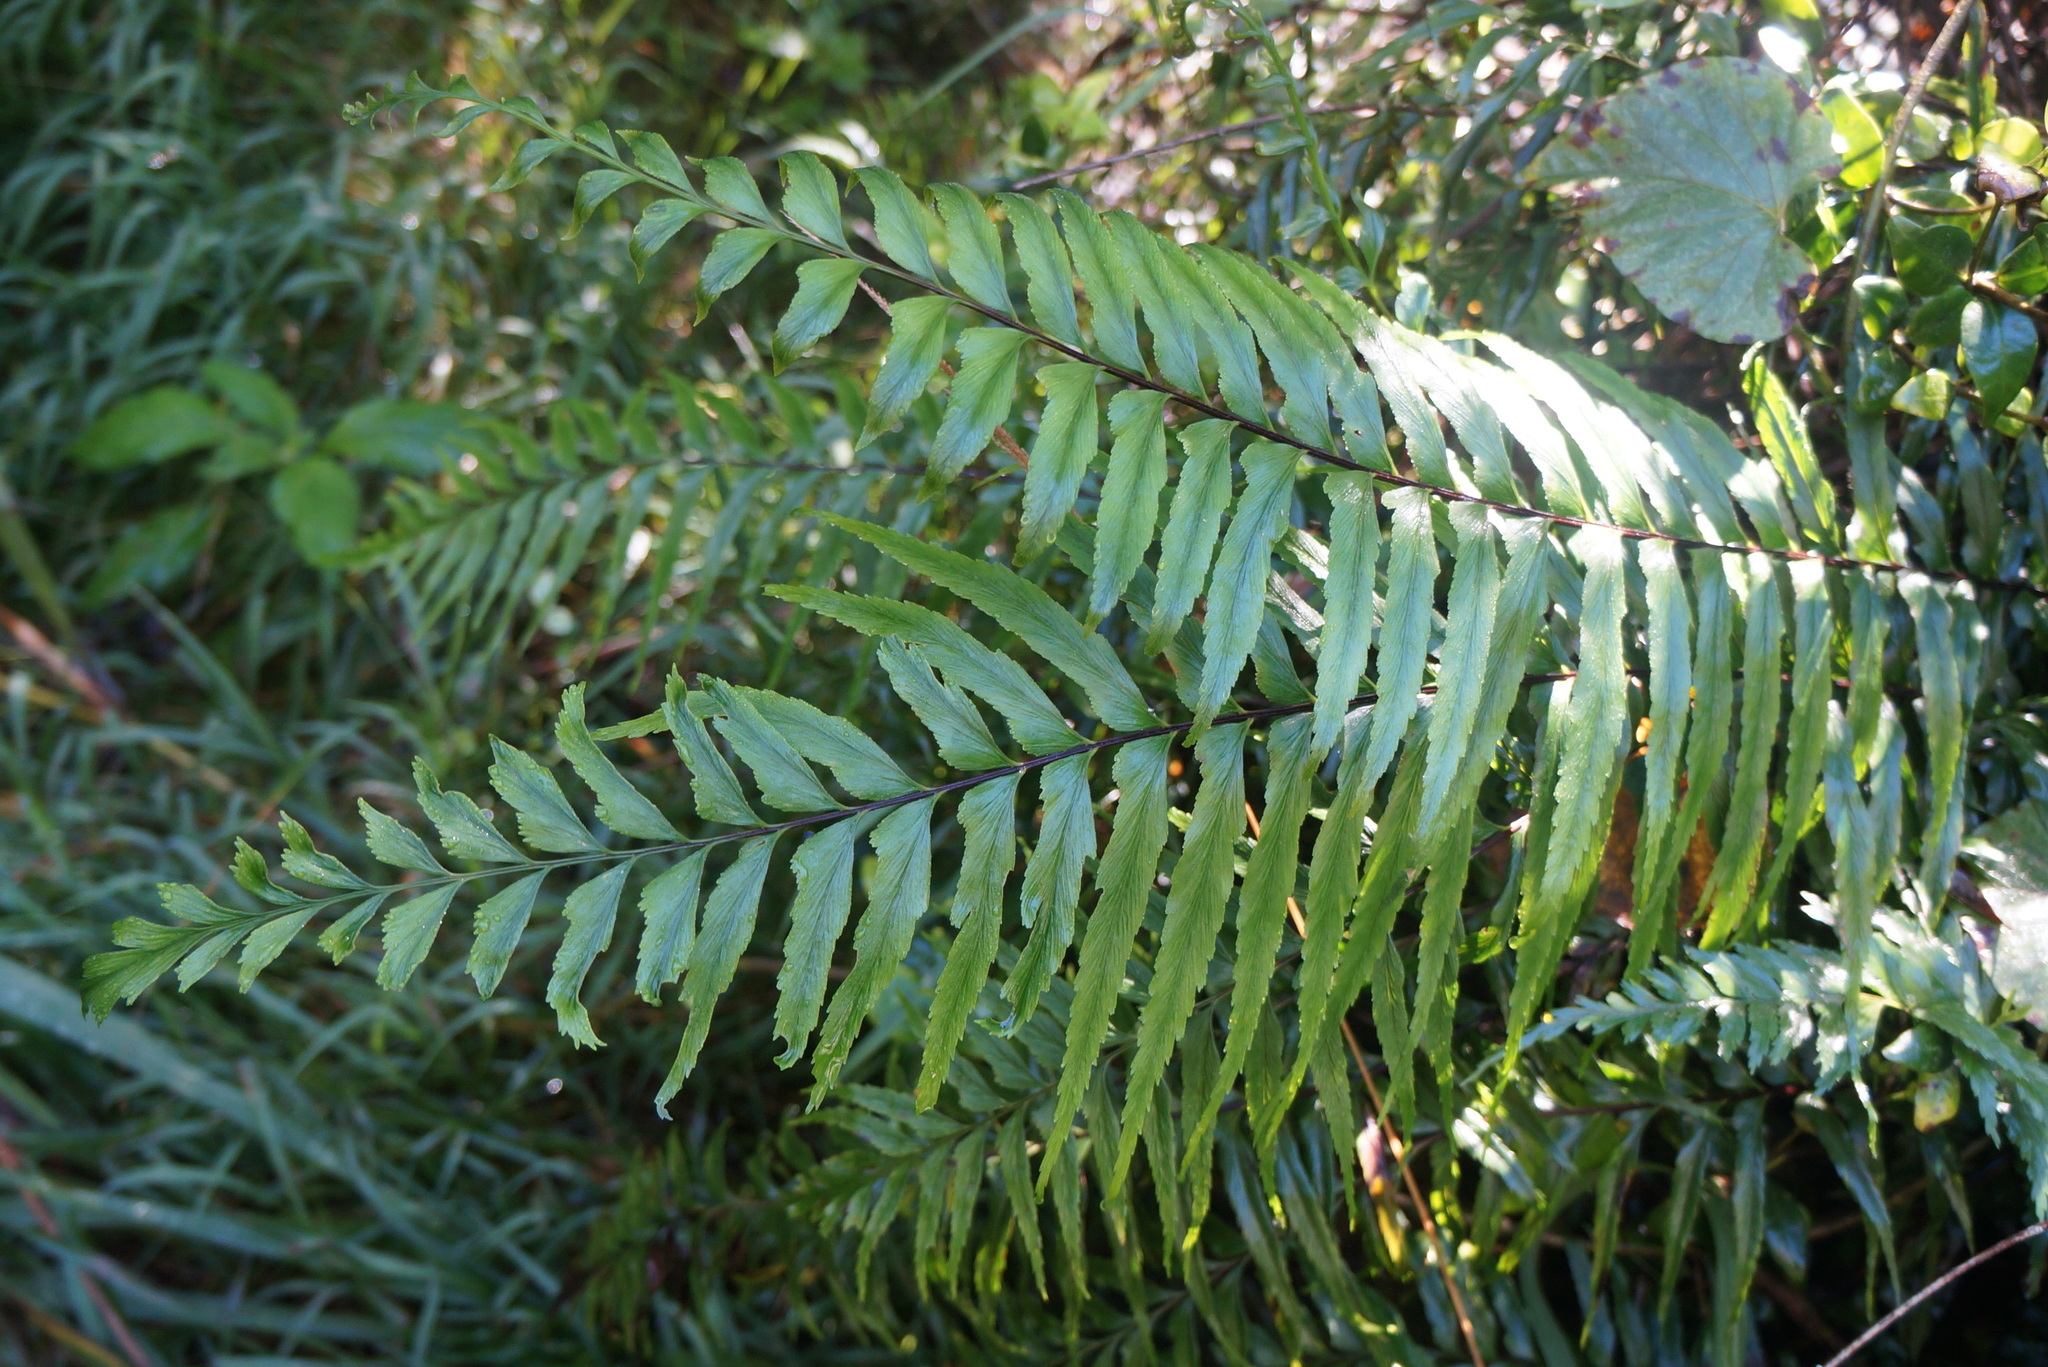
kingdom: Plantae
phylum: Tracheophyta
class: Polypodiopsida
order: Polypodiales
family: Aspleniaceae
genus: Asplenium
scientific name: Asplenium contiguum
